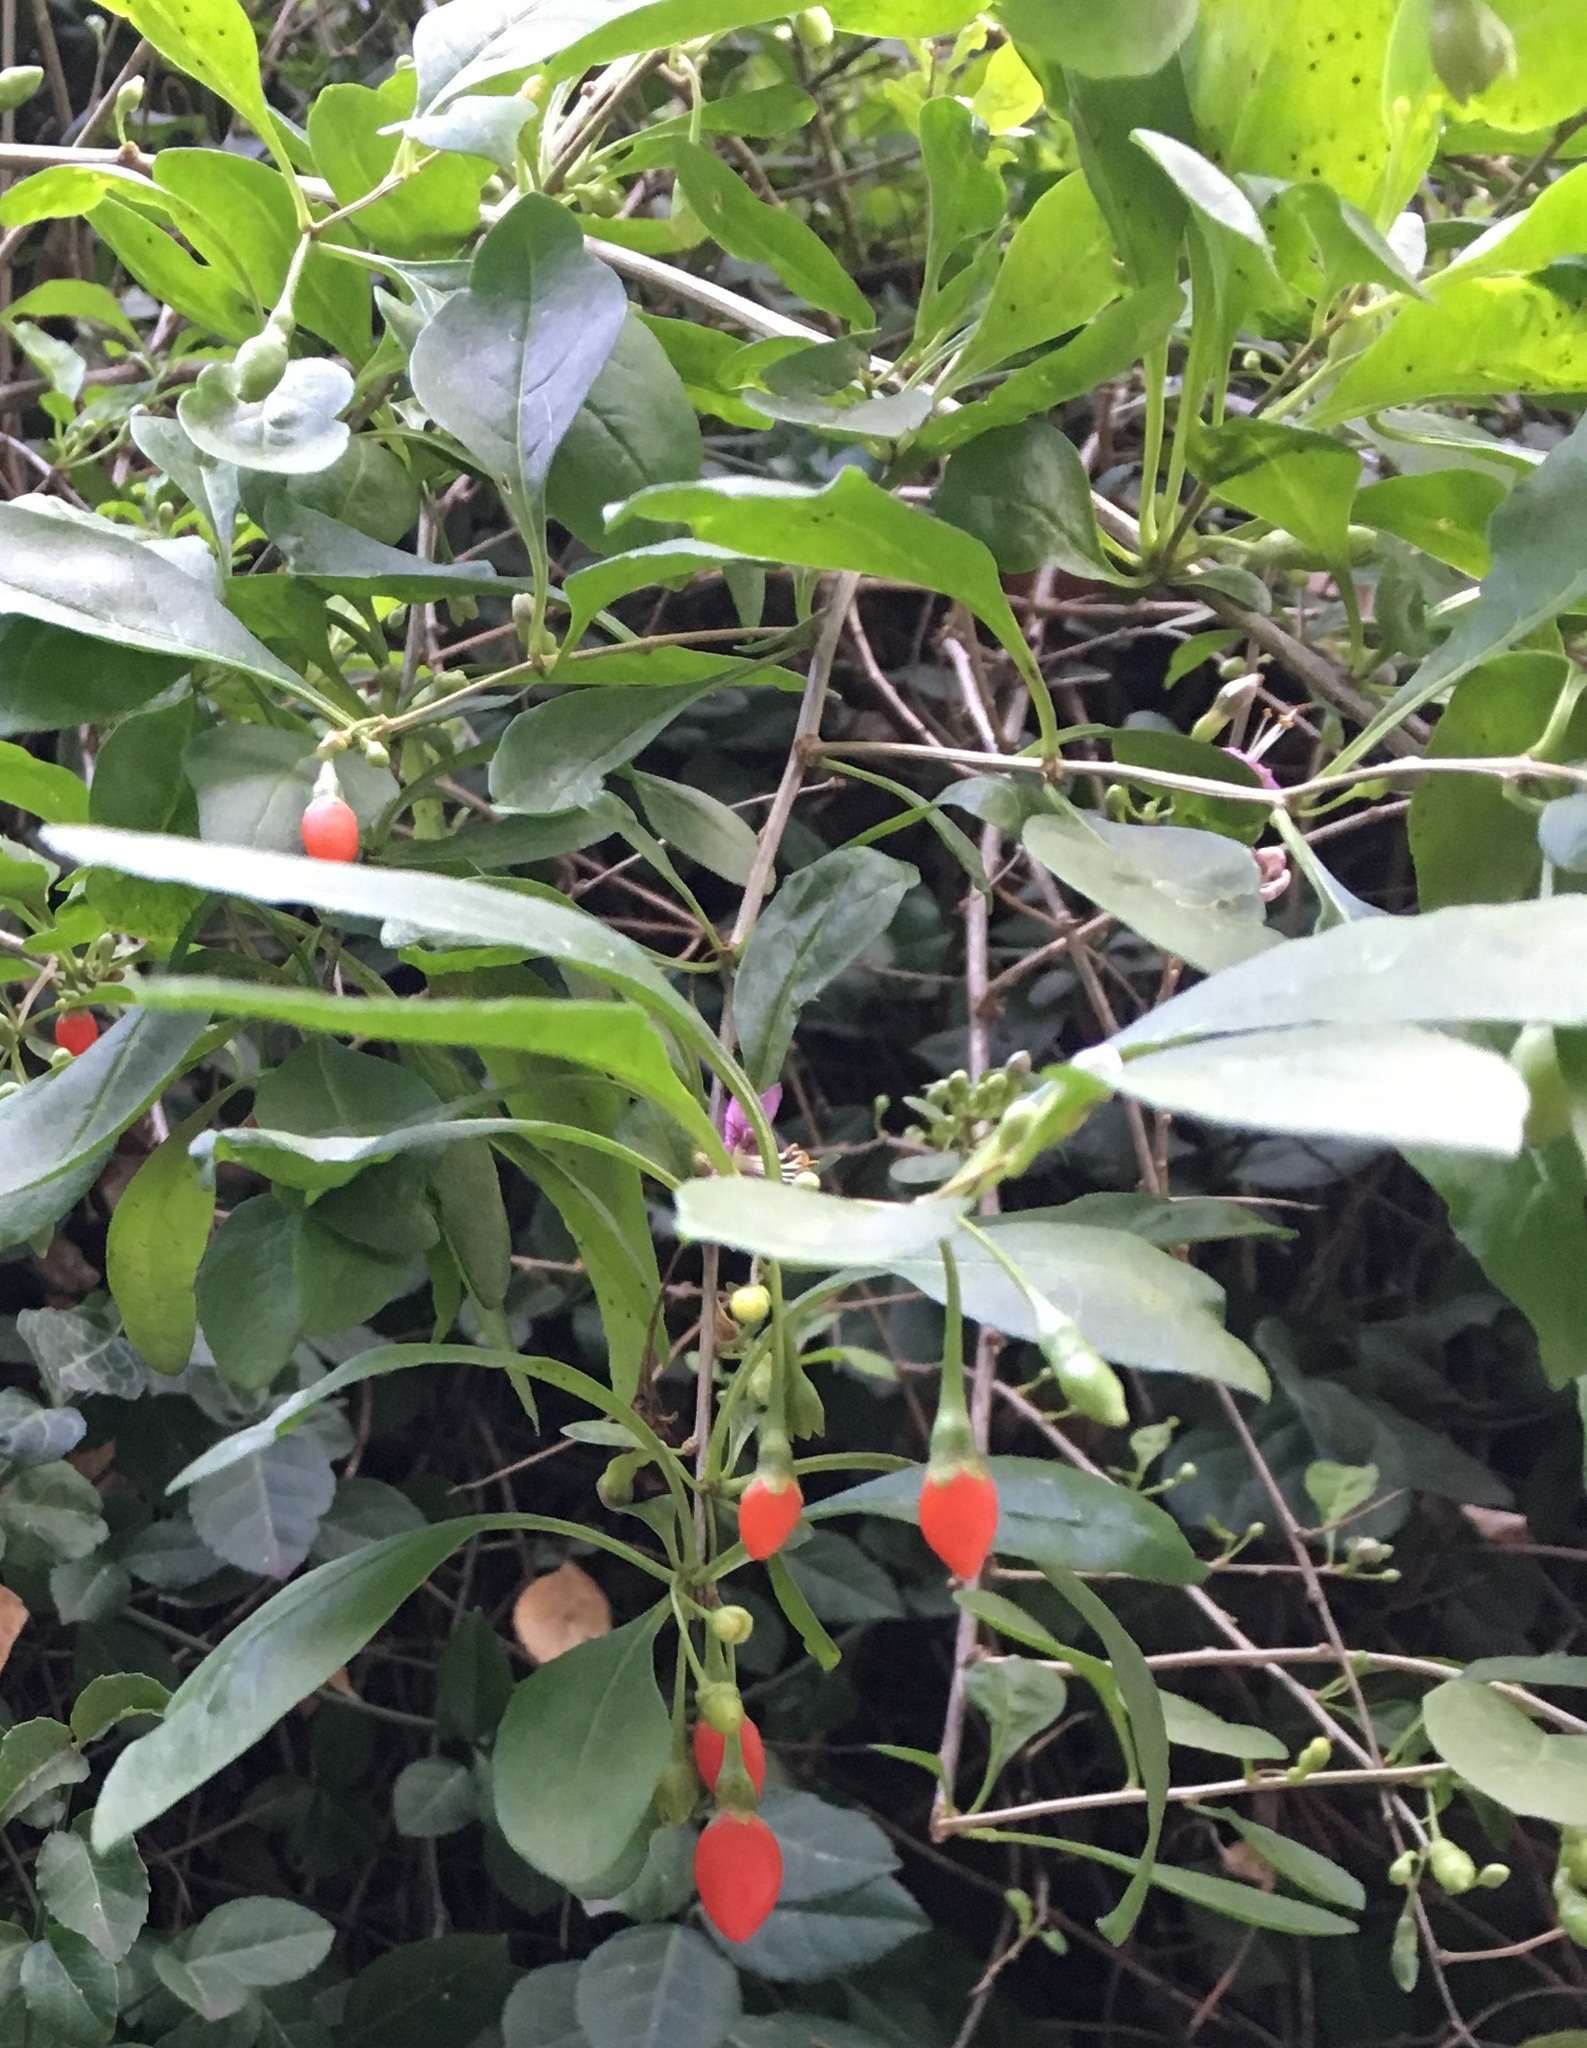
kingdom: Plantae
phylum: Tracheophyta
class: Magnoliopsida
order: Solanales
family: Solanaceae
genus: Lycium
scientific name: Lycium barbarum
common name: Duke of argyll's teaplant
